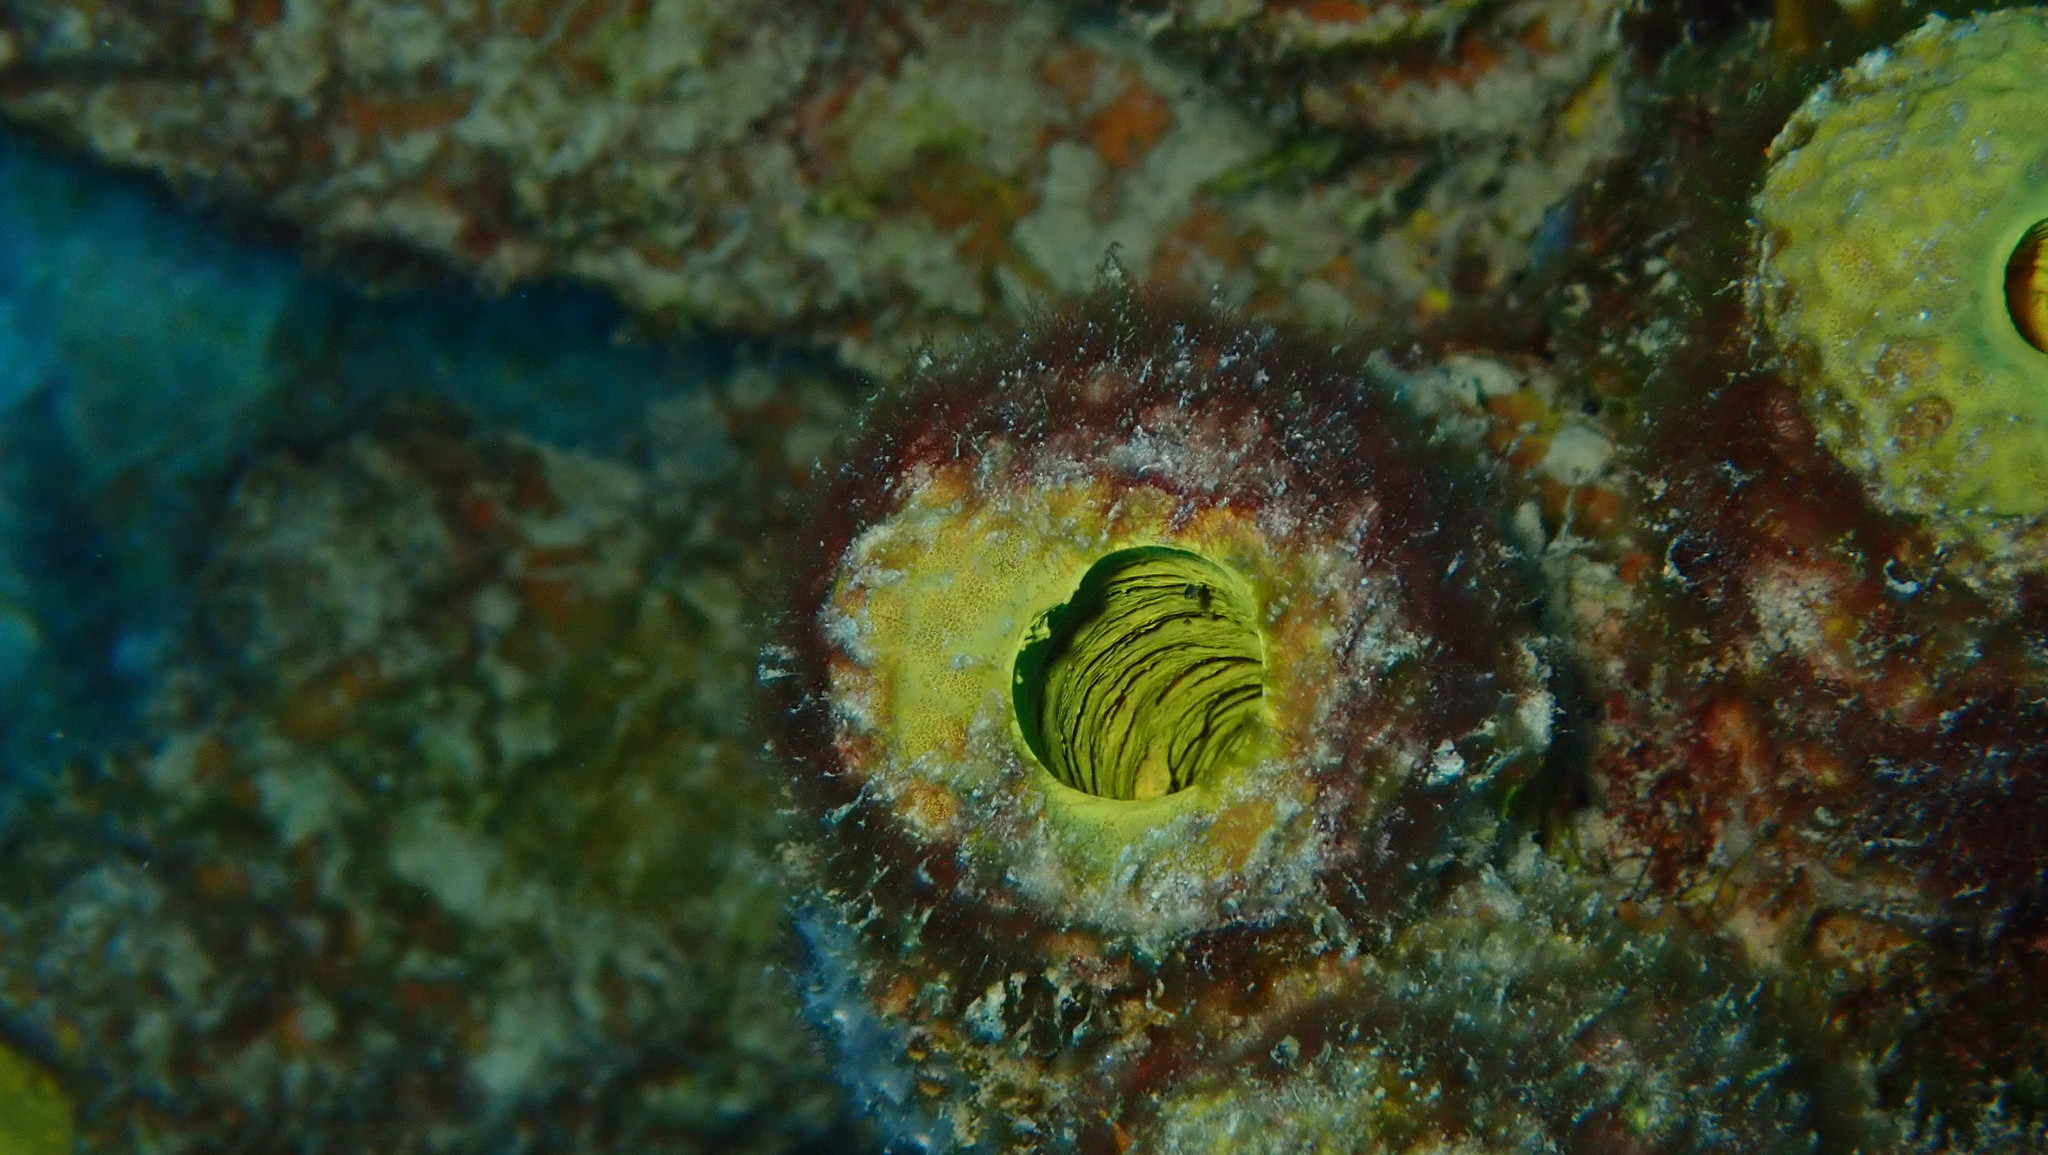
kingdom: Animalia
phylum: Porifera
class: Demospongiae
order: Verongiida
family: Aplysinidae
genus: Aplysina
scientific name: Aplysina lacunosa
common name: Convoluted barrel sponge
